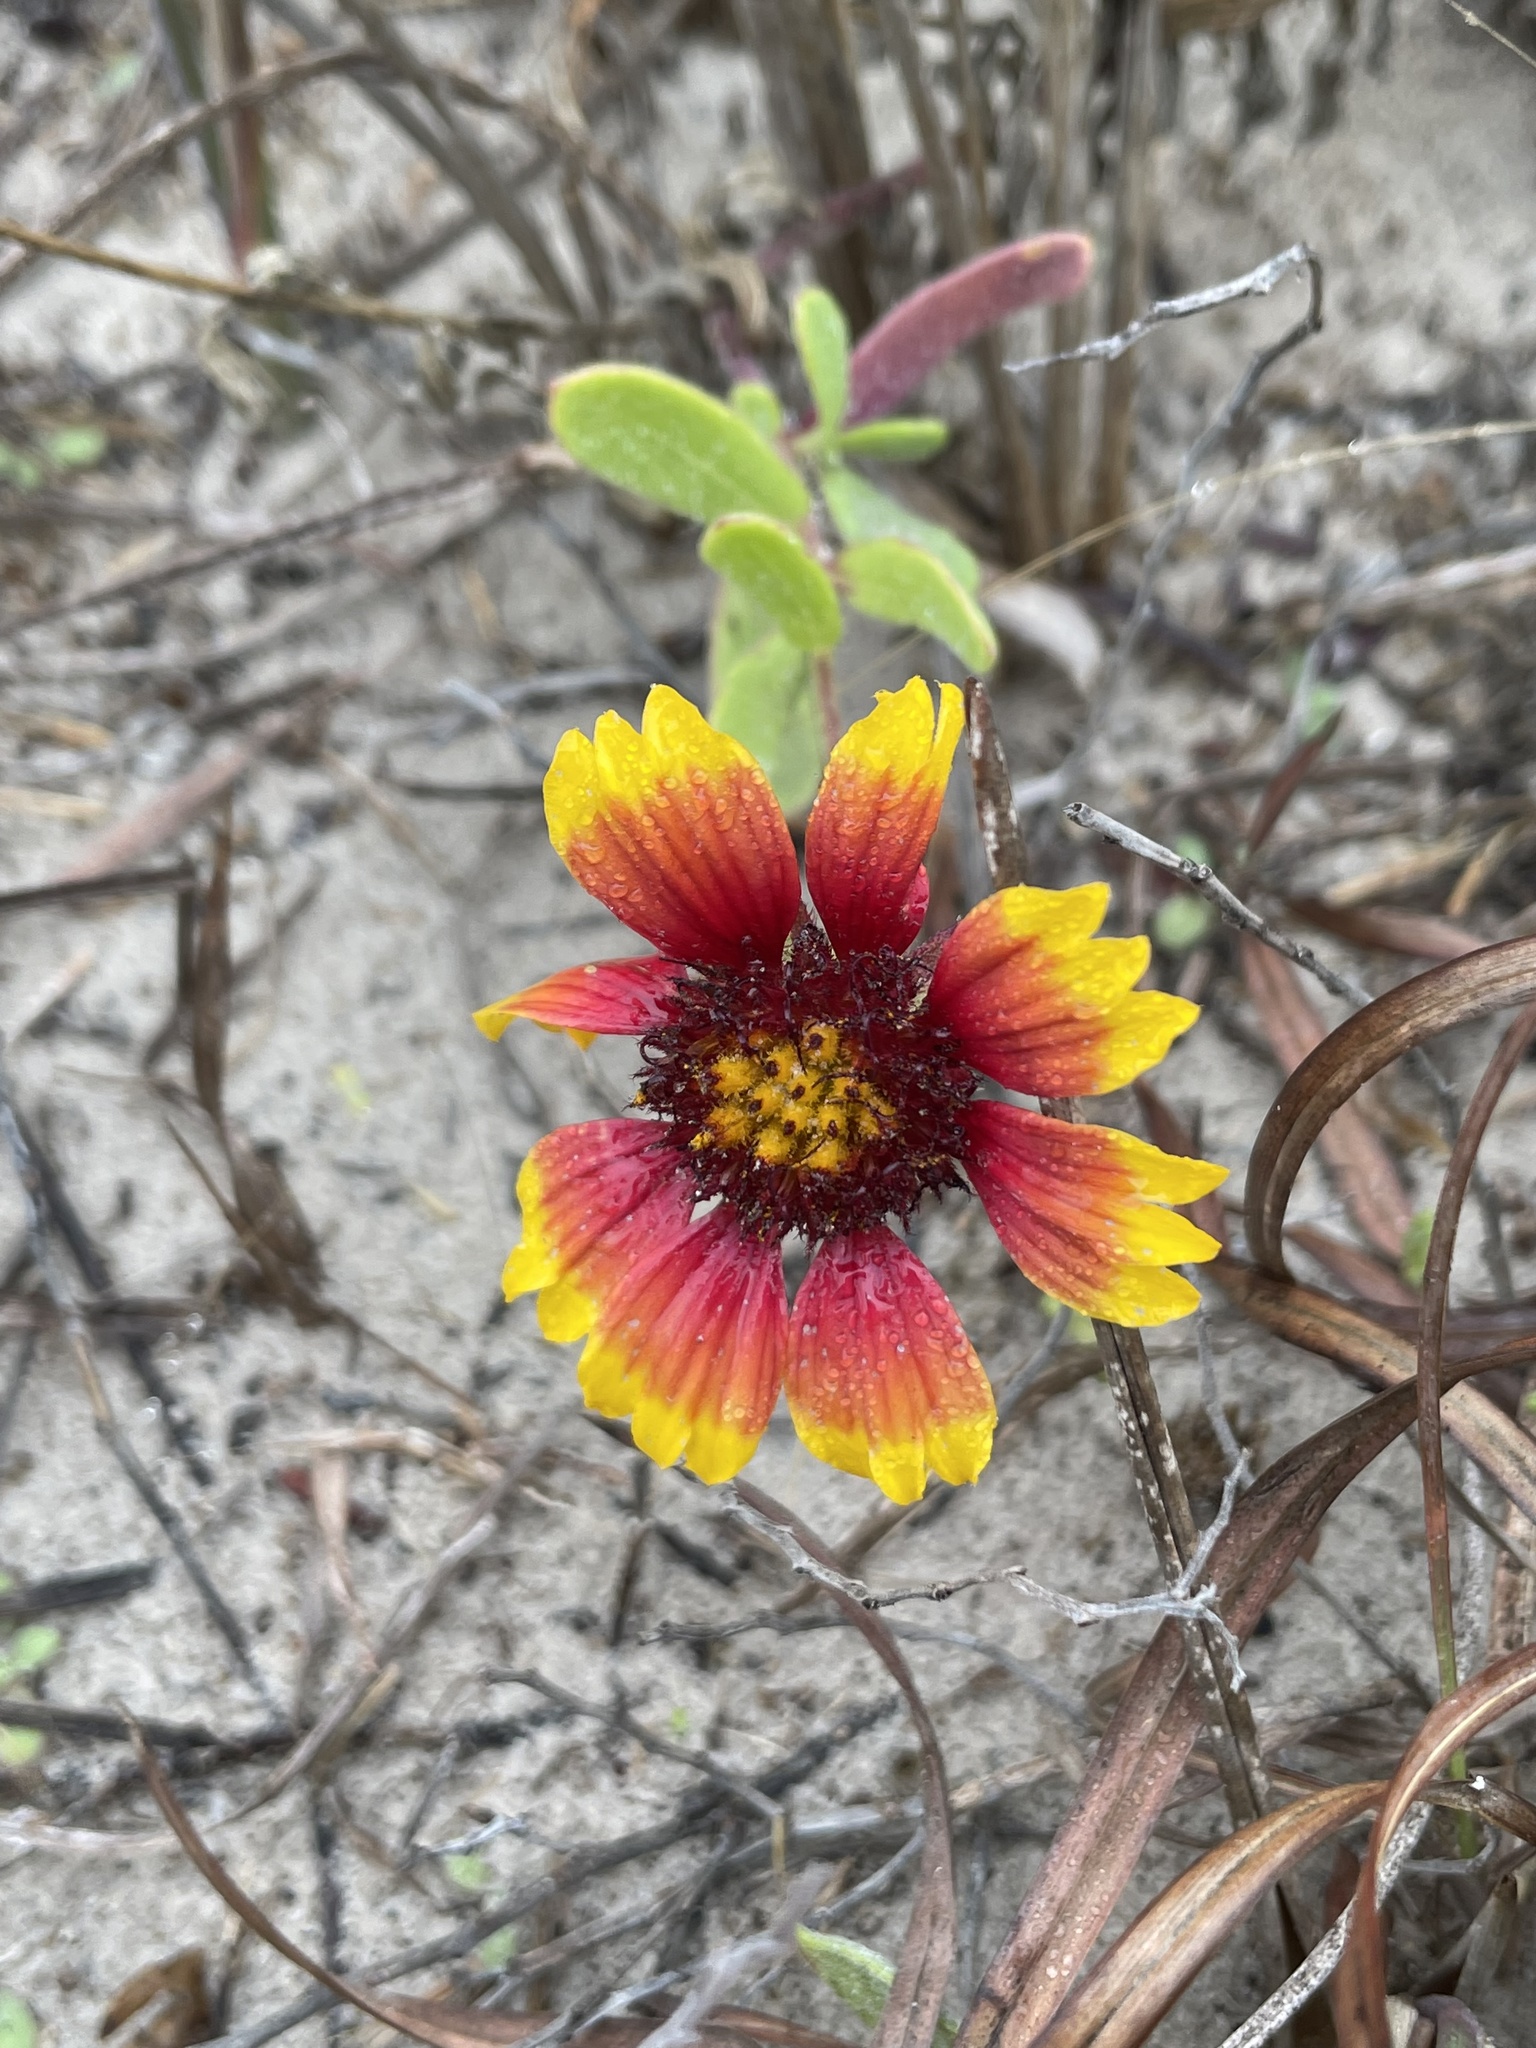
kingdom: Plantae
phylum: Tracheophyta
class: Magnoliopsida
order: Asterales
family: Asteraceae
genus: Gaillardia
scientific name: Gaillardia pulchella
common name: Firewheel
